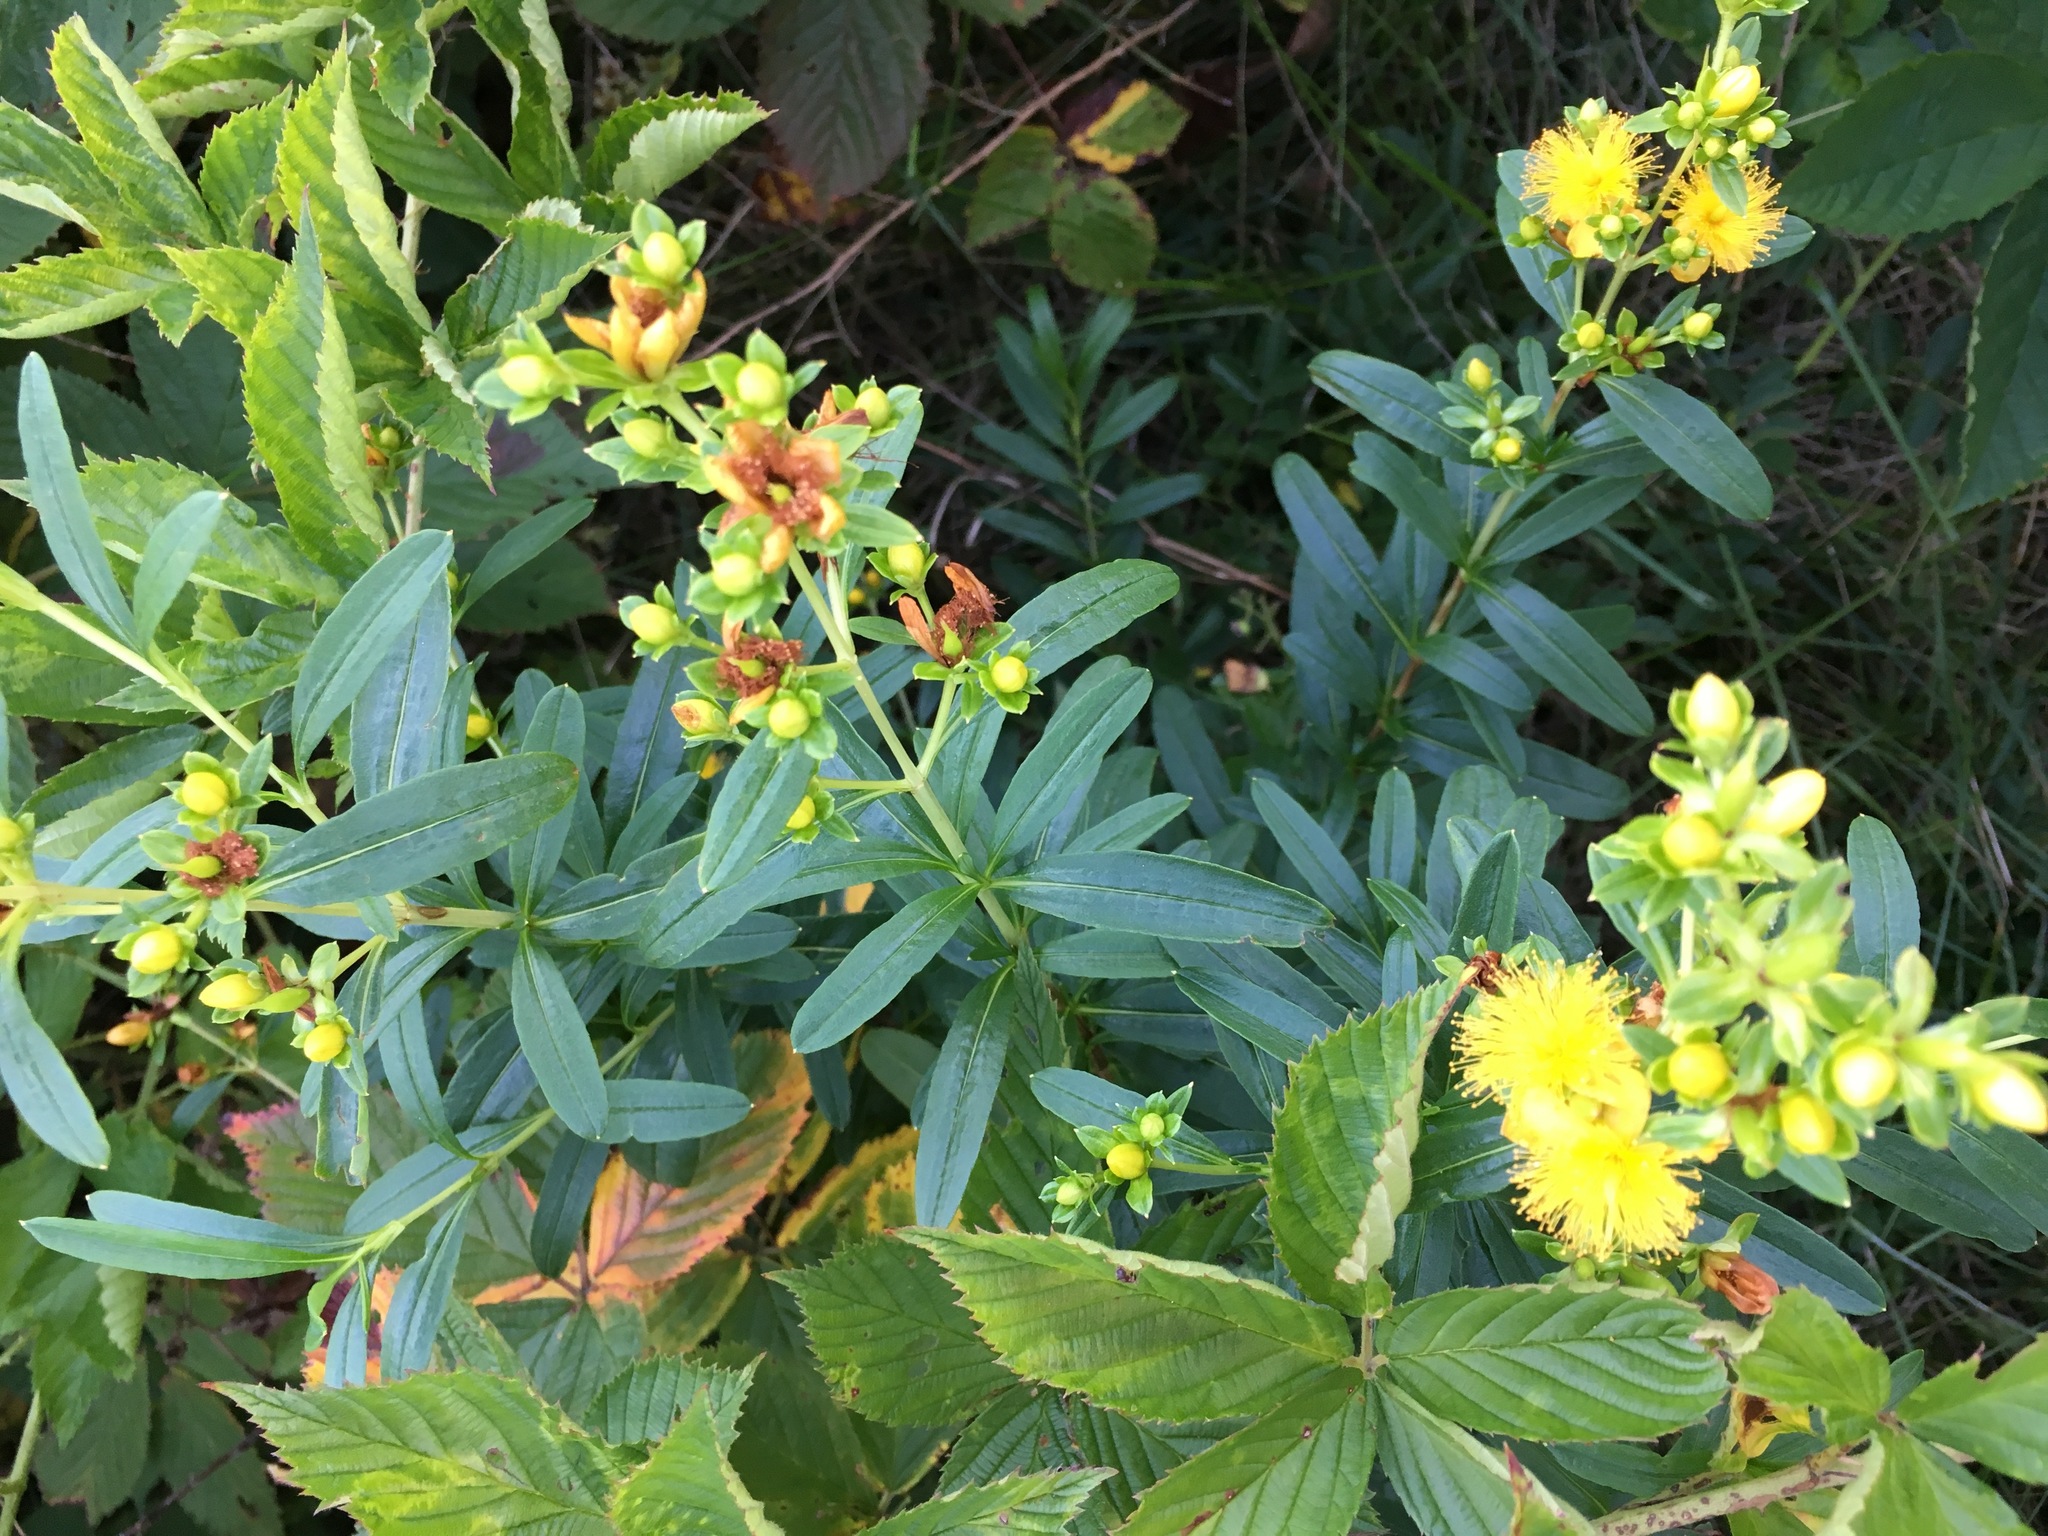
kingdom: Plantae
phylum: Tracheophyta
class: Magnoliopsida
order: Malpighiales
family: Hypericaceae
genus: Hypericum
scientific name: Hypericum prolificum
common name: Shrubby st. john's-wort
